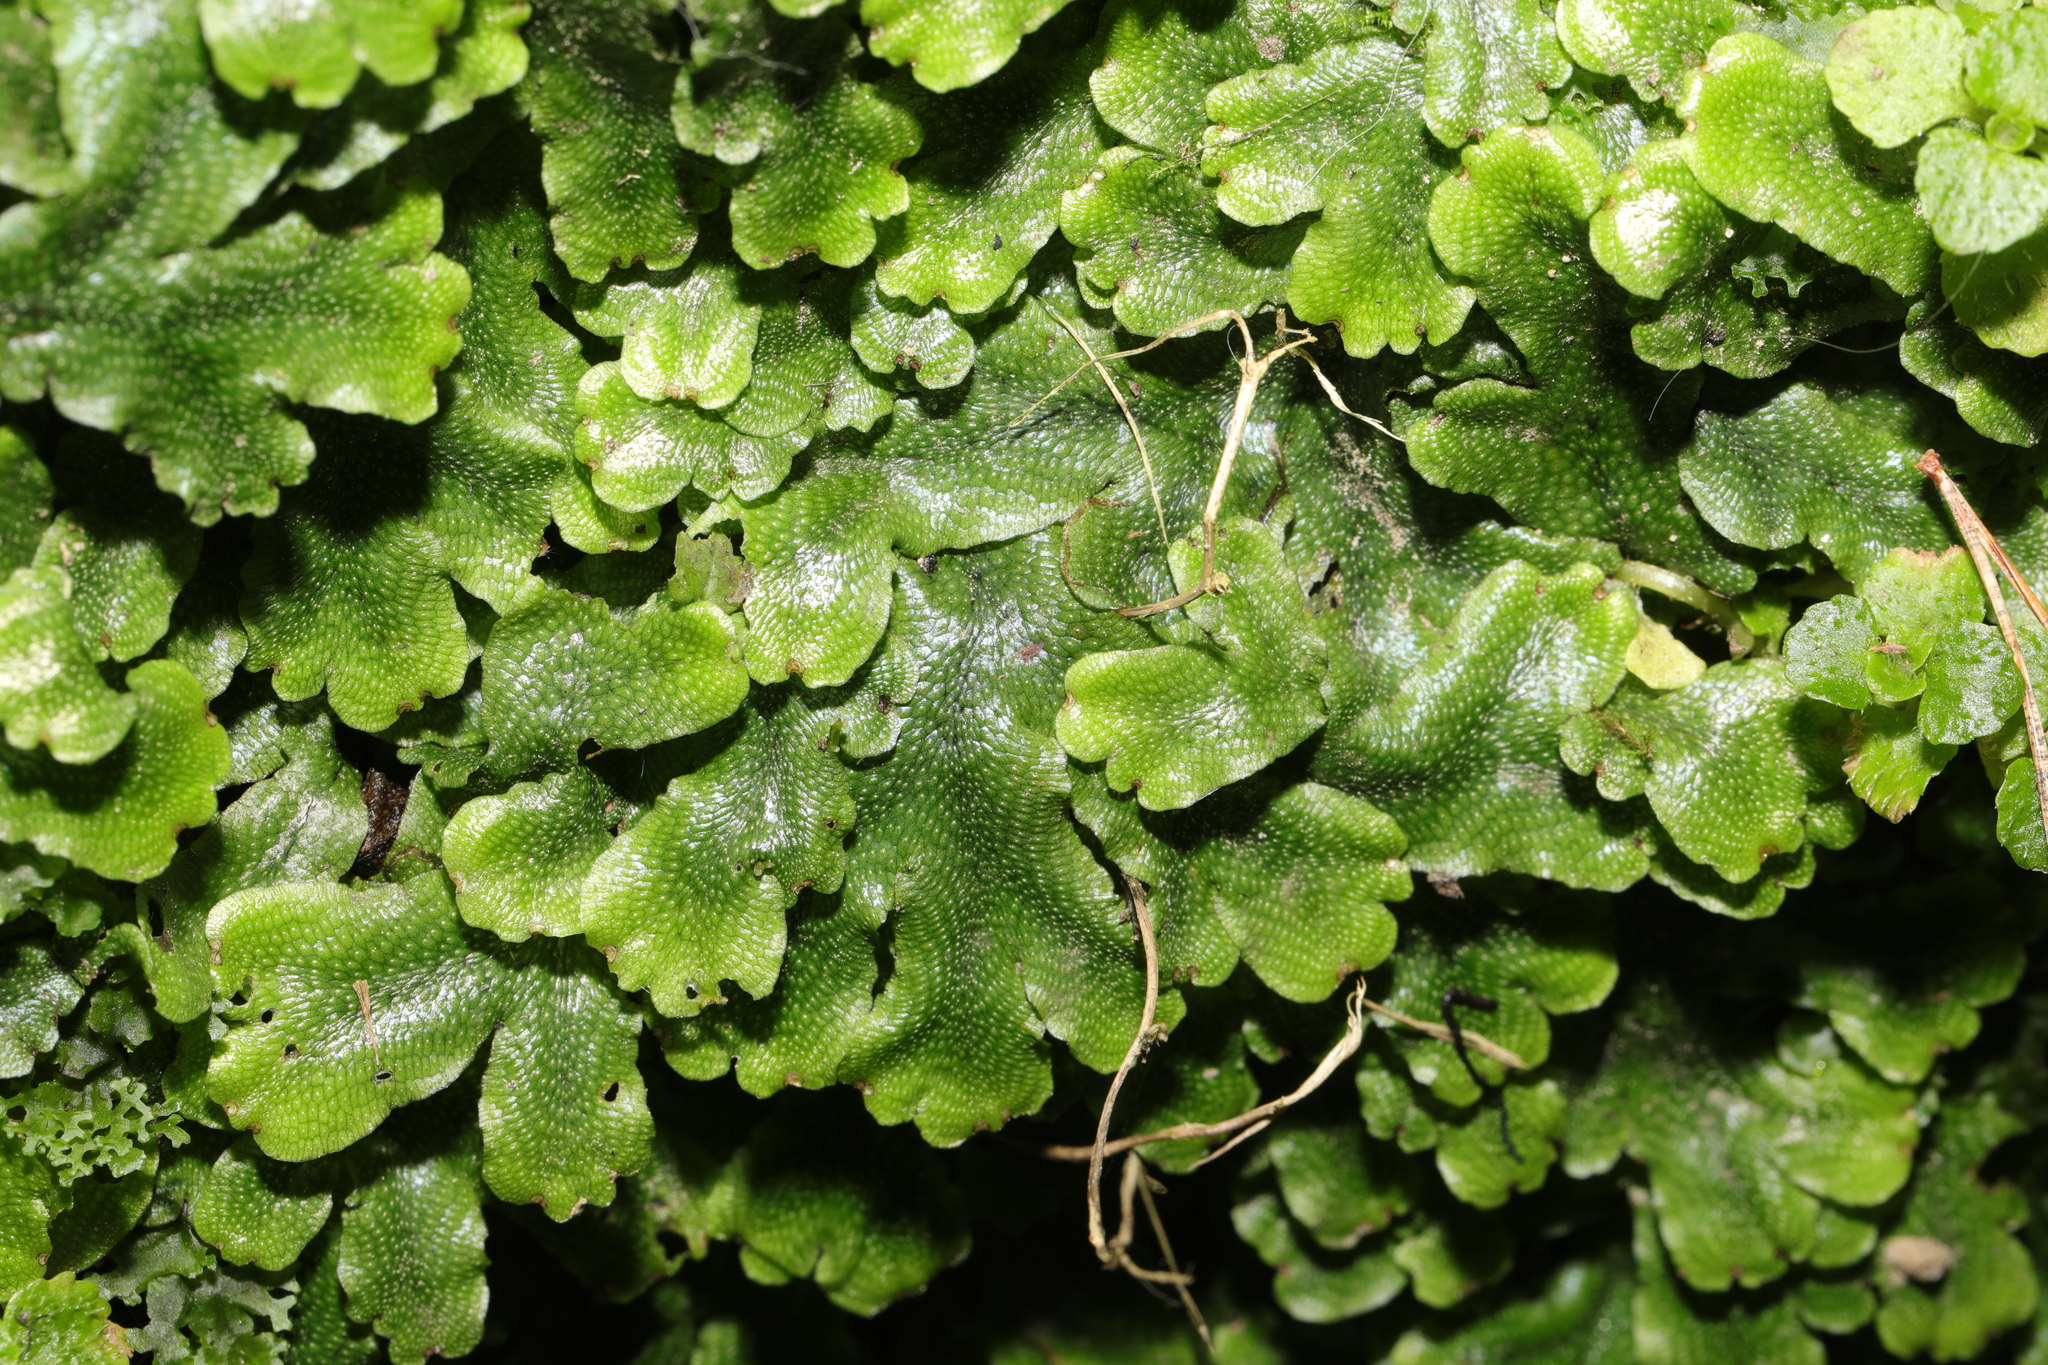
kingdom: Plantae
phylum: Marchantiophyta
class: Marchantiopsida
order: Marchantiales
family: Conocephalaceae
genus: Conocephalum
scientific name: Conocephalum salebrosum
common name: Cat-tongue liverwort
